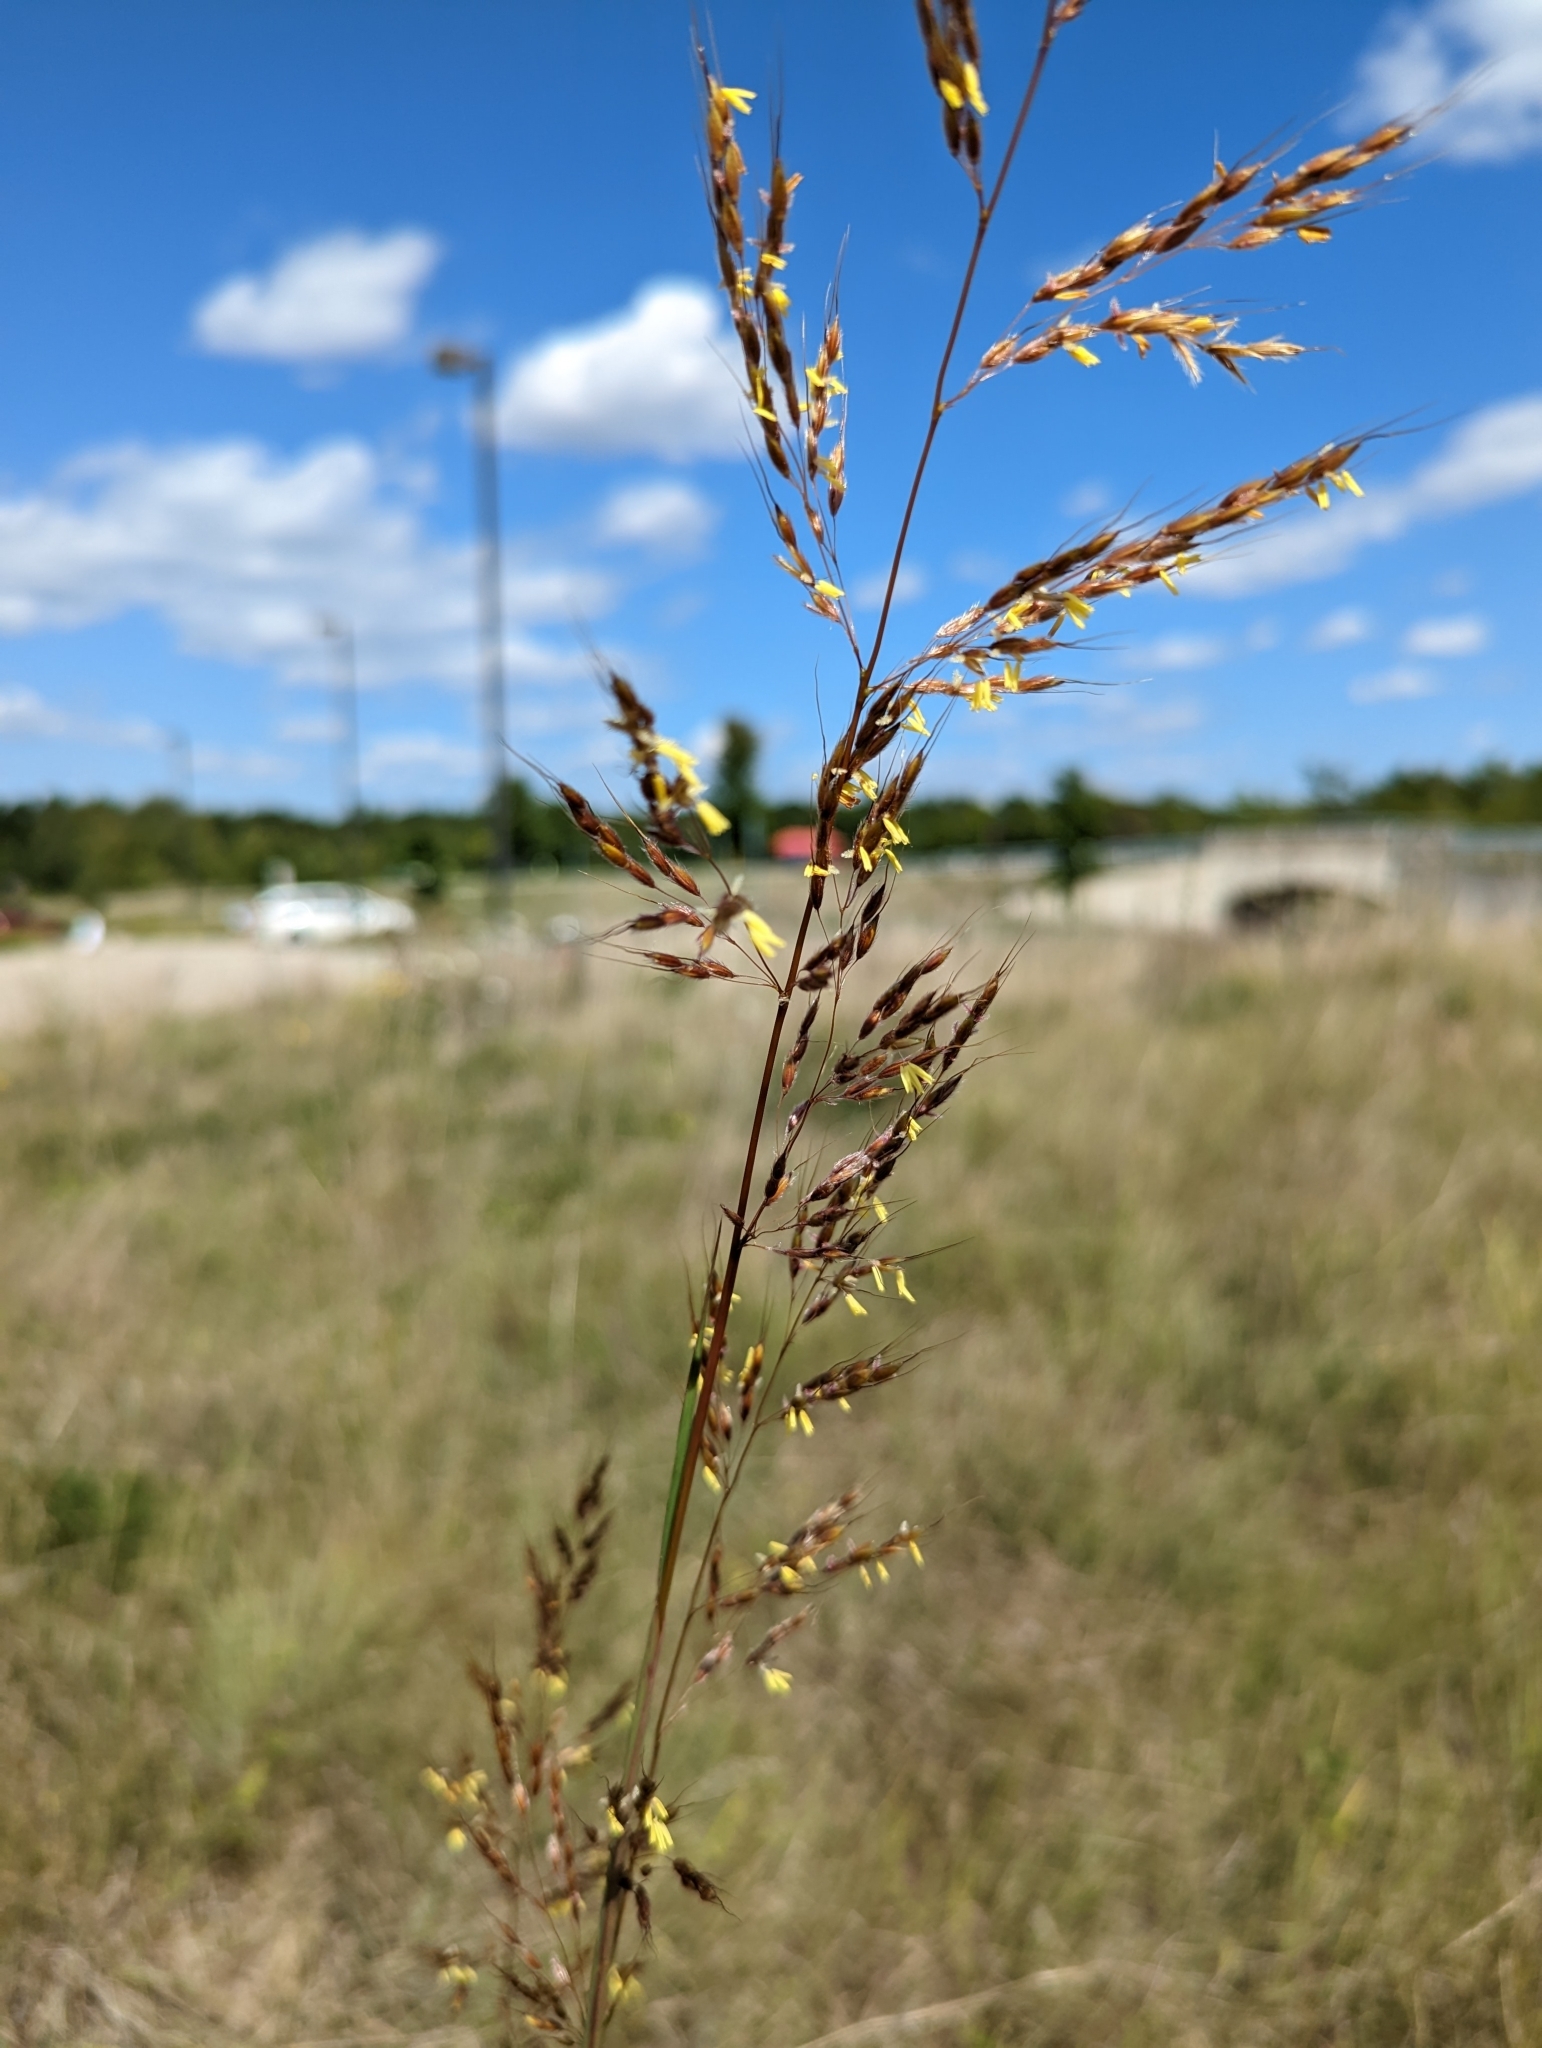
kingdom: Plantae
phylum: Tracheophyta
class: Liliopsida
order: Poales
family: Poaceae
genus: Sorghastrum
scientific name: Sorghastrum nutans
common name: Indian grass
